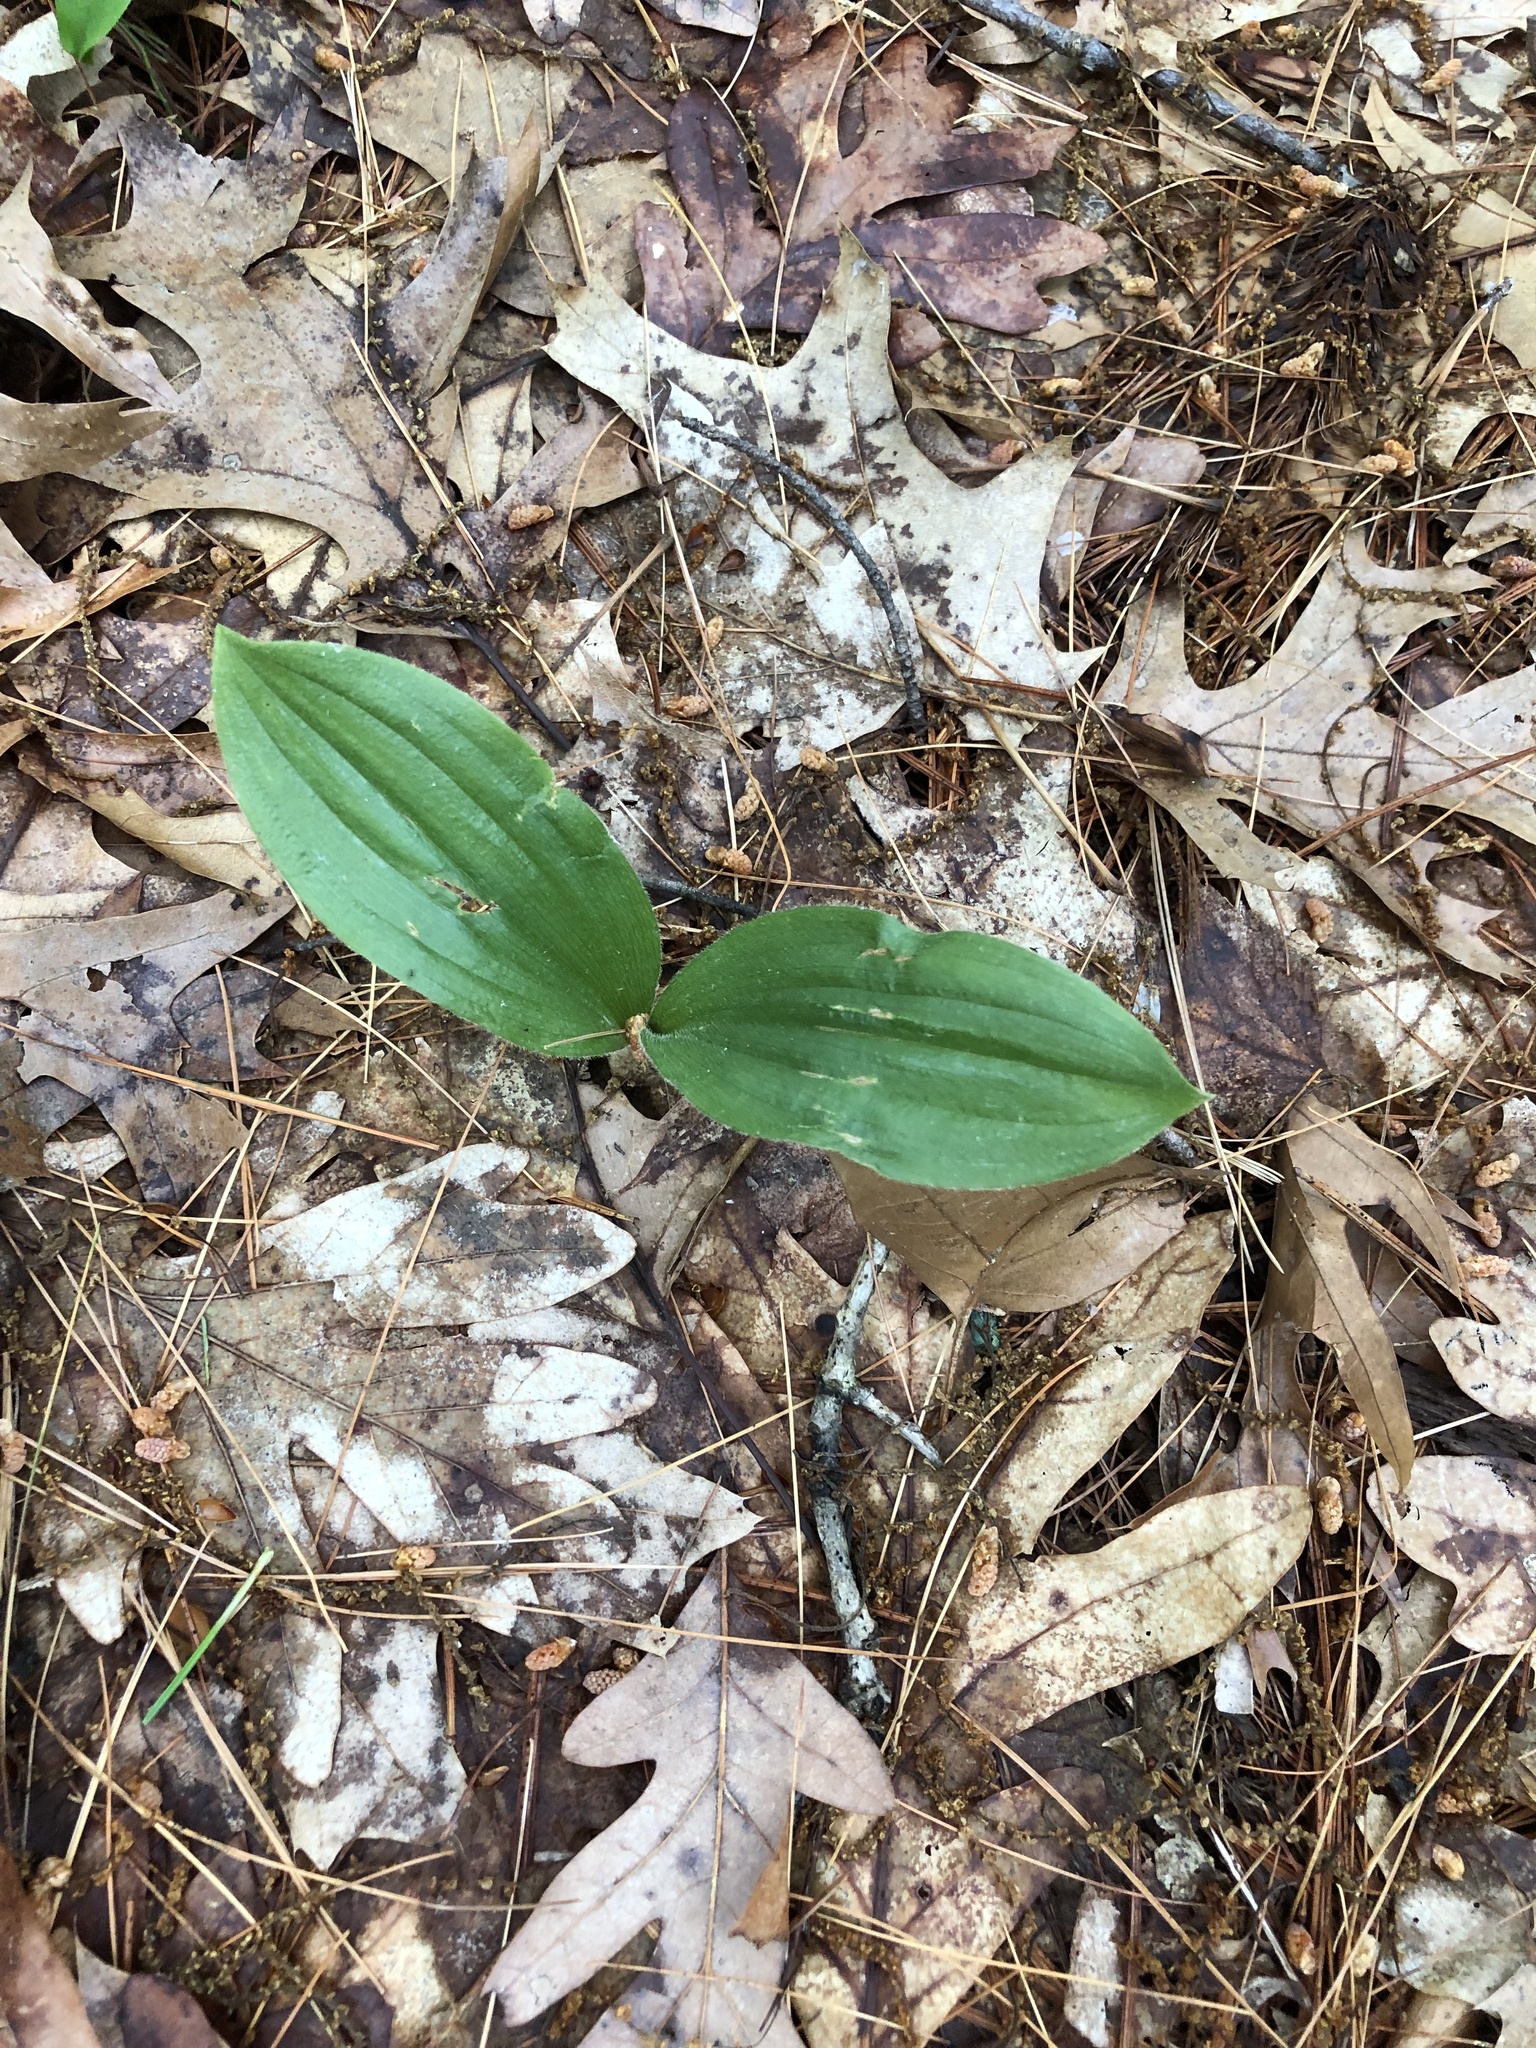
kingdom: Plantae
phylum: Tracheophyta
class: Liliopsida
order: Asparagales
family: Orchidaceae
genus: Cypripedium
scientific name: Cypripedium acaule
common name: Pink lady's-slipper
